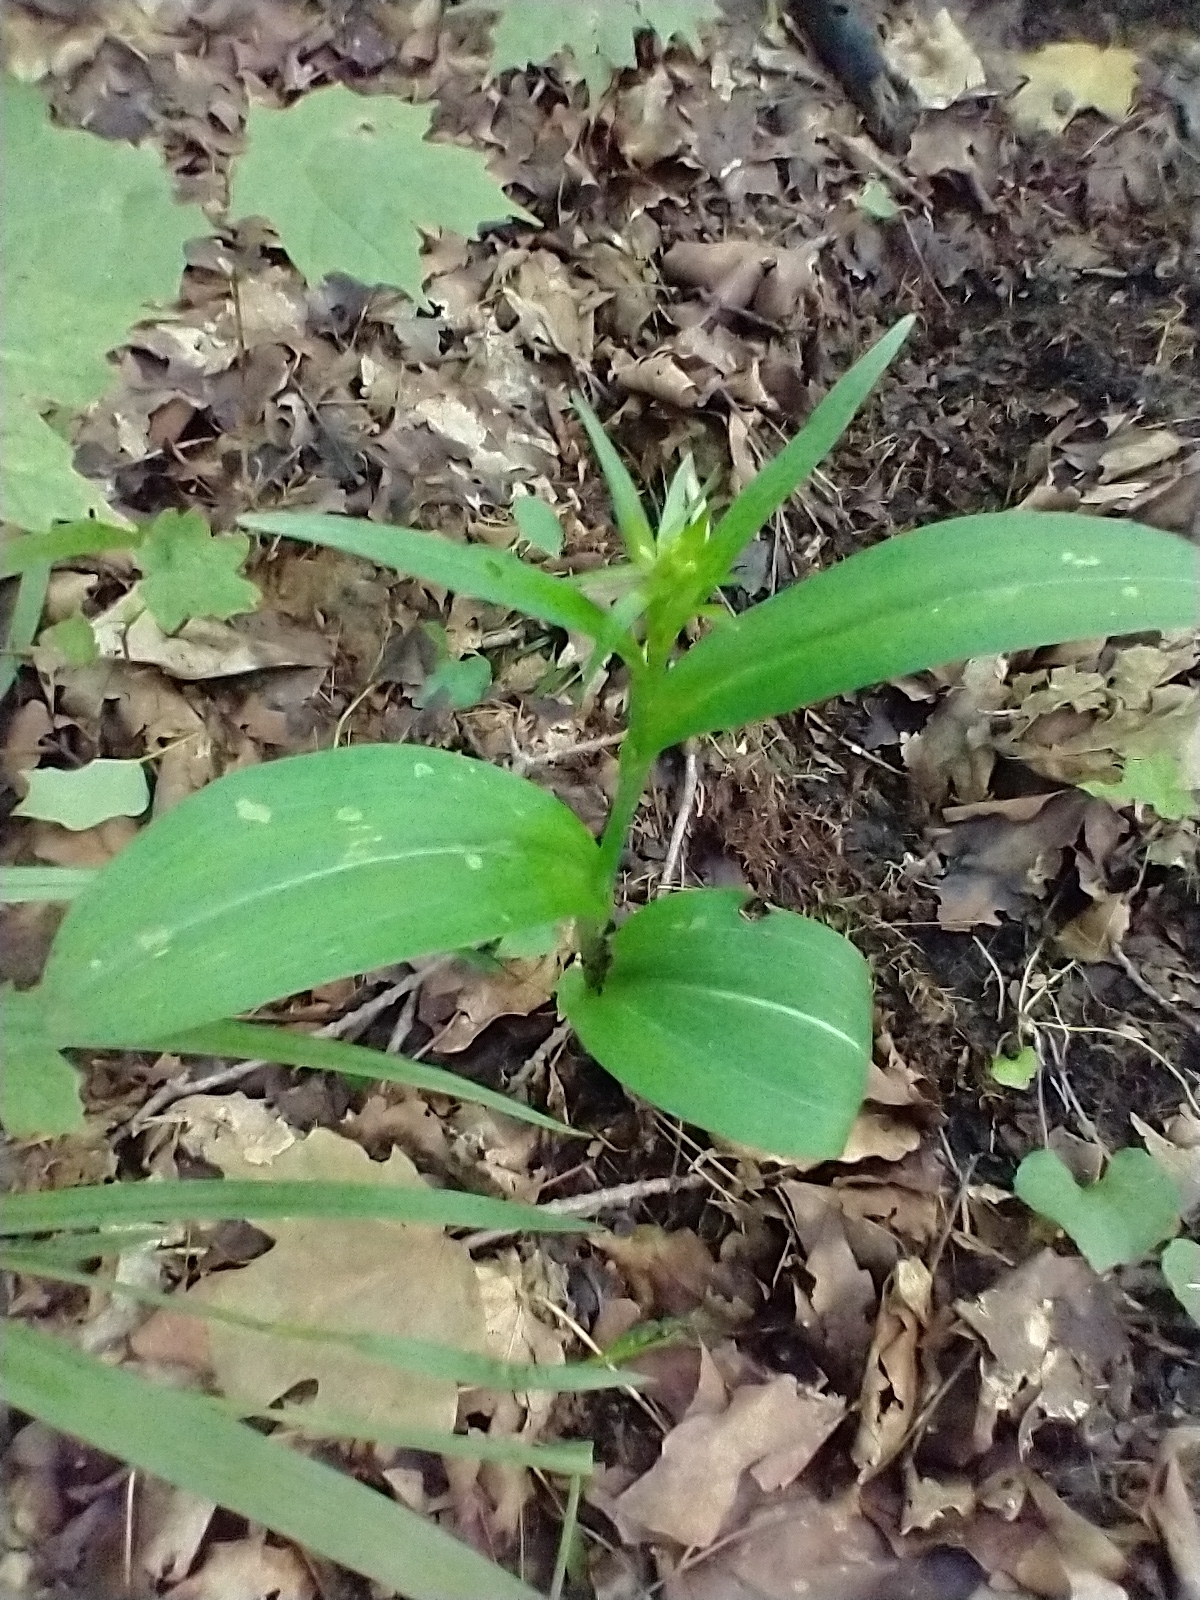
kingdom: Plantae
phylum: Tracheophyta
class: Liliopsida
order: Asparagales
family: Orchidaceae
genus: Platanthera
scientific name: Platanthera grandiflora
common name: Greater purple fringed orchid
